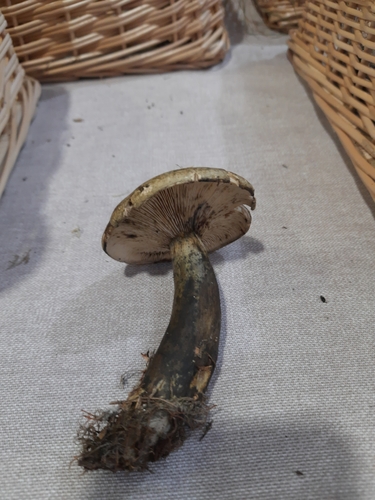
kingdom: Fungi
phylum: Basidiomycota
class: Agaricomycetes
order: Russulales
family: Russulaceae
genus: Lactarius
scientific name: Lactarius turpis
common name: Ugly milk-cap
